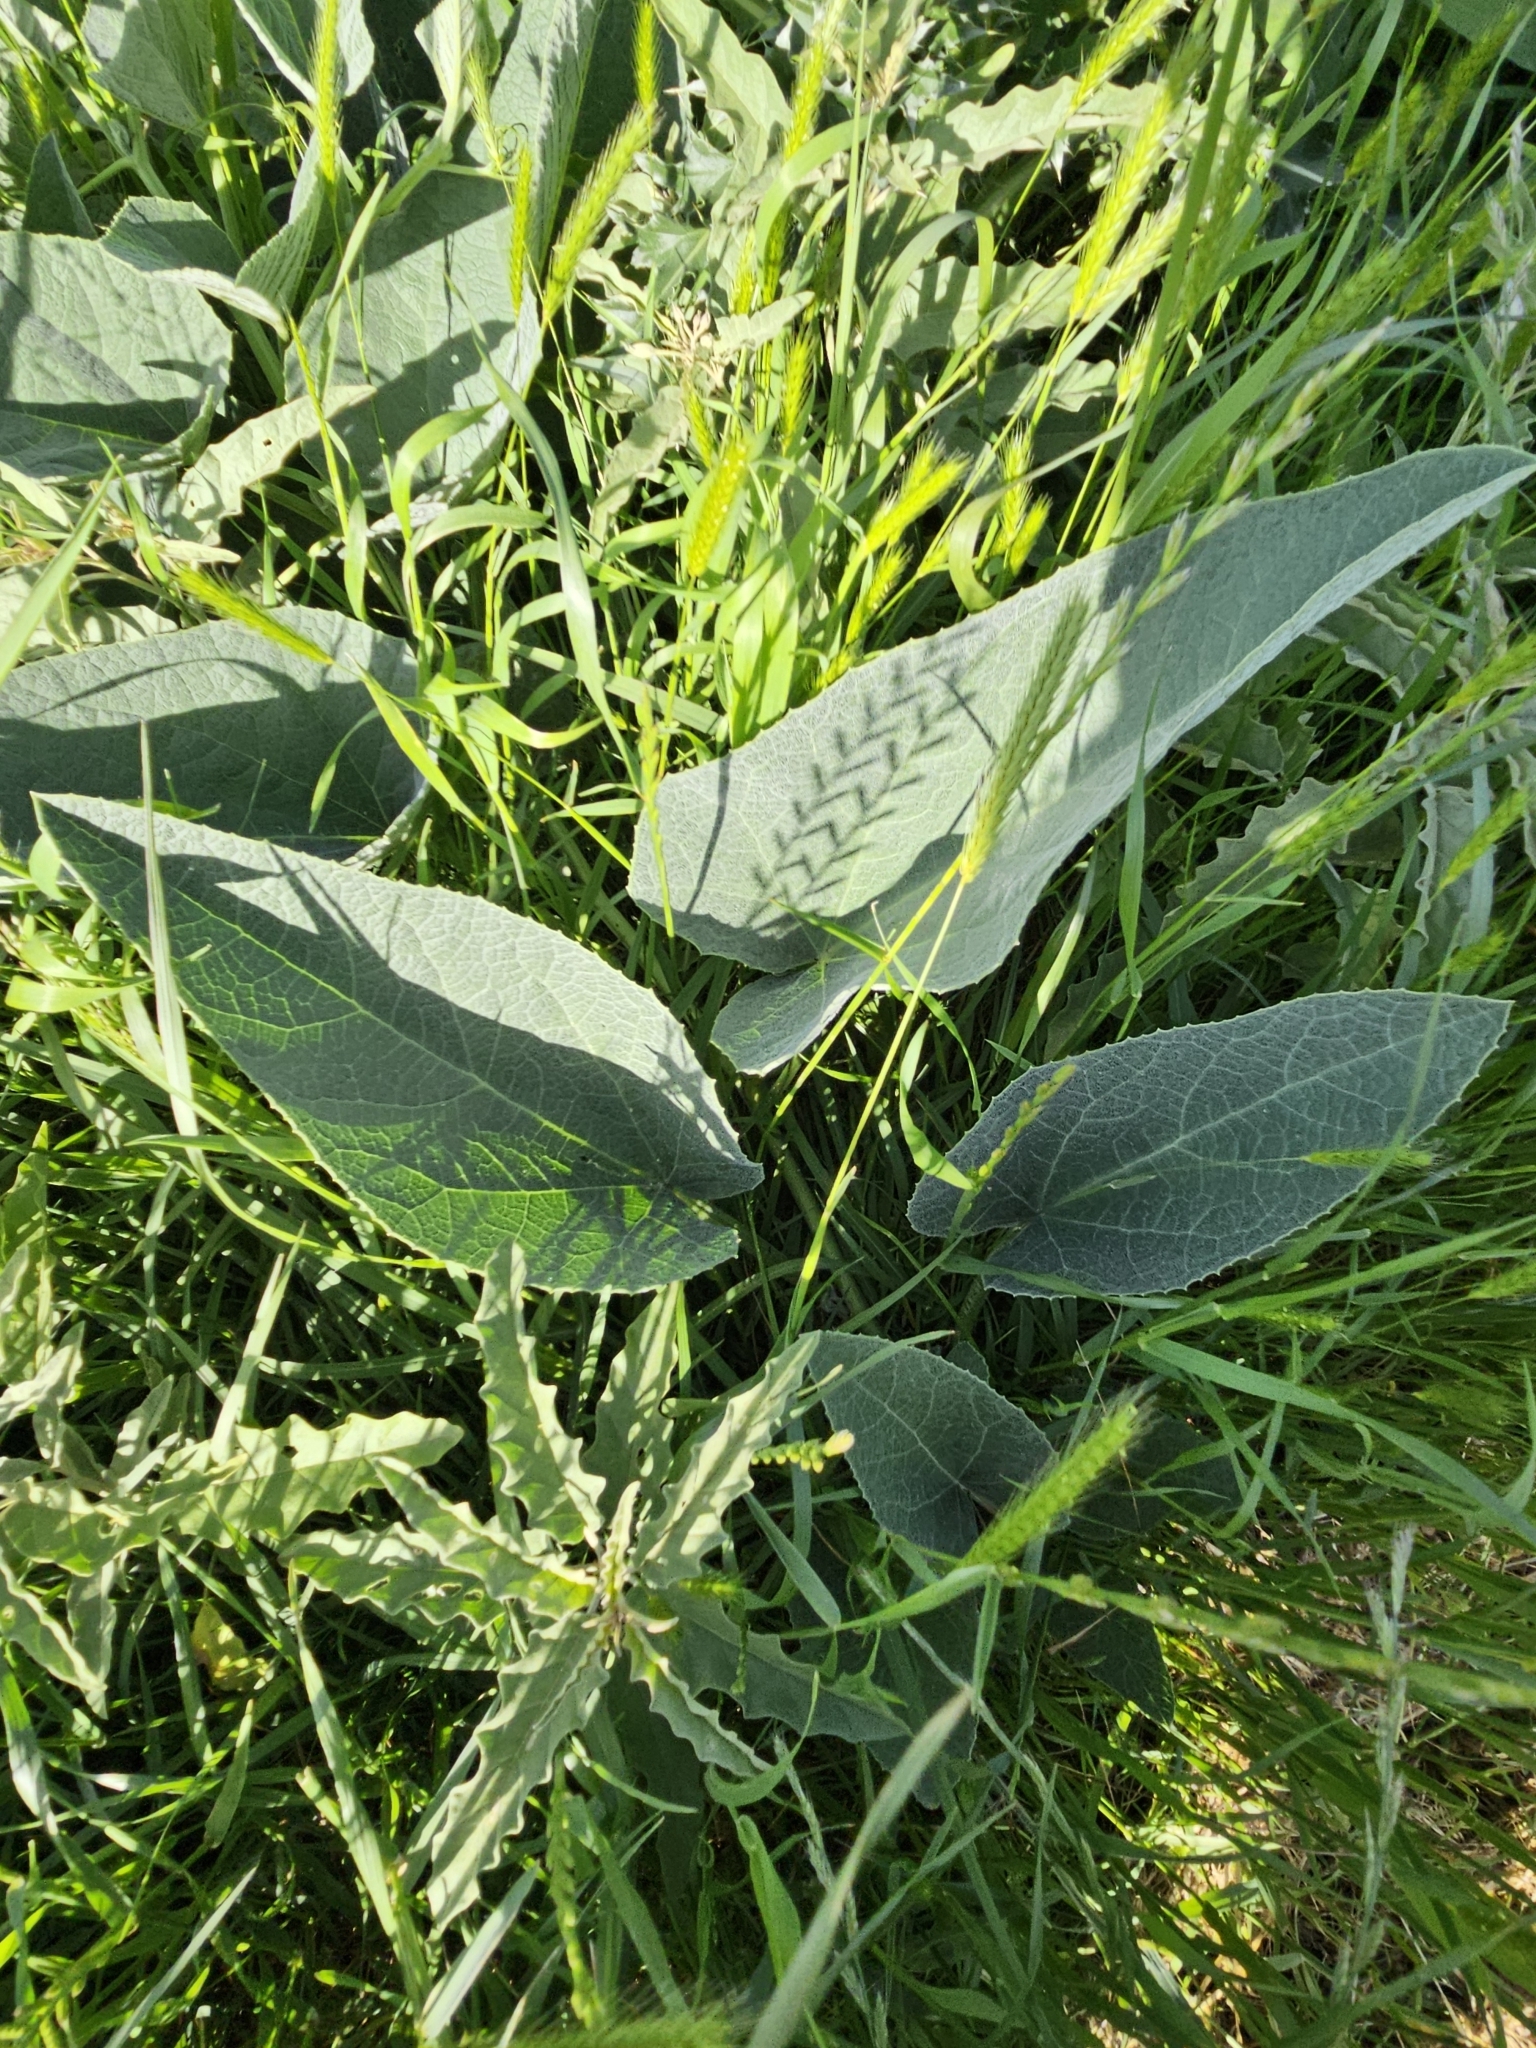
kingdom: Plantae
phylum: Tracheophyta
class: Magnoliopsida
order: Cucurbitales
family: Cucurbitaceae
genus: Cucurbita
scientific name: Cucurbita foetidissima
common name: Buffalo gourd
